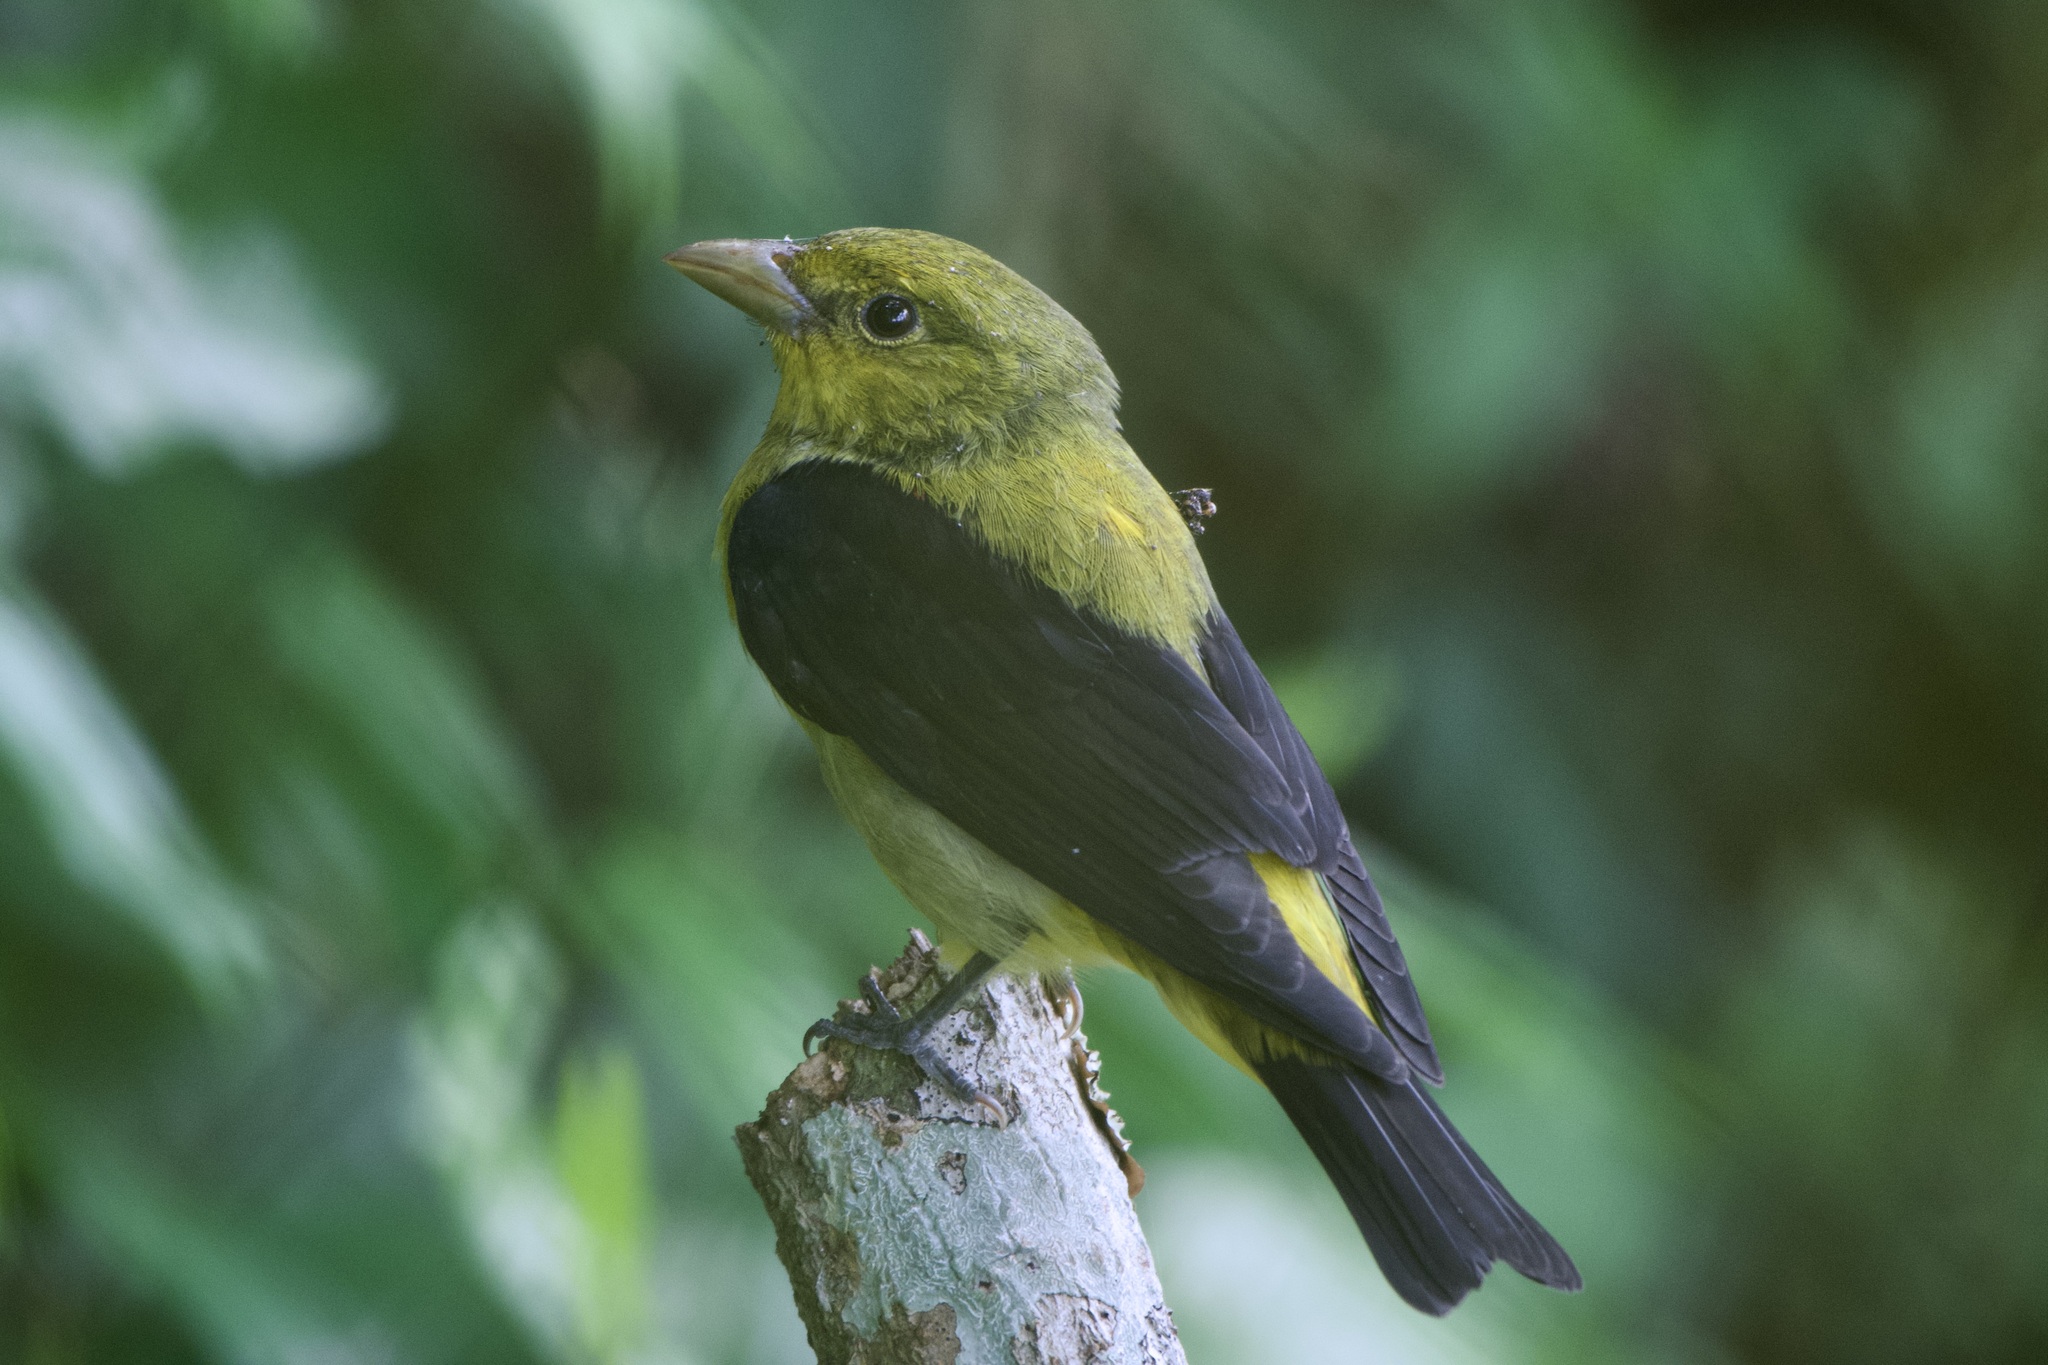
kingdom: Animalia
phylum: Chordata
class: Aves
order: Passeriformes
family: Cardinalidae
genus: Piranga
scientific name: Piranga olivacea
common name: Scarlet tanager
